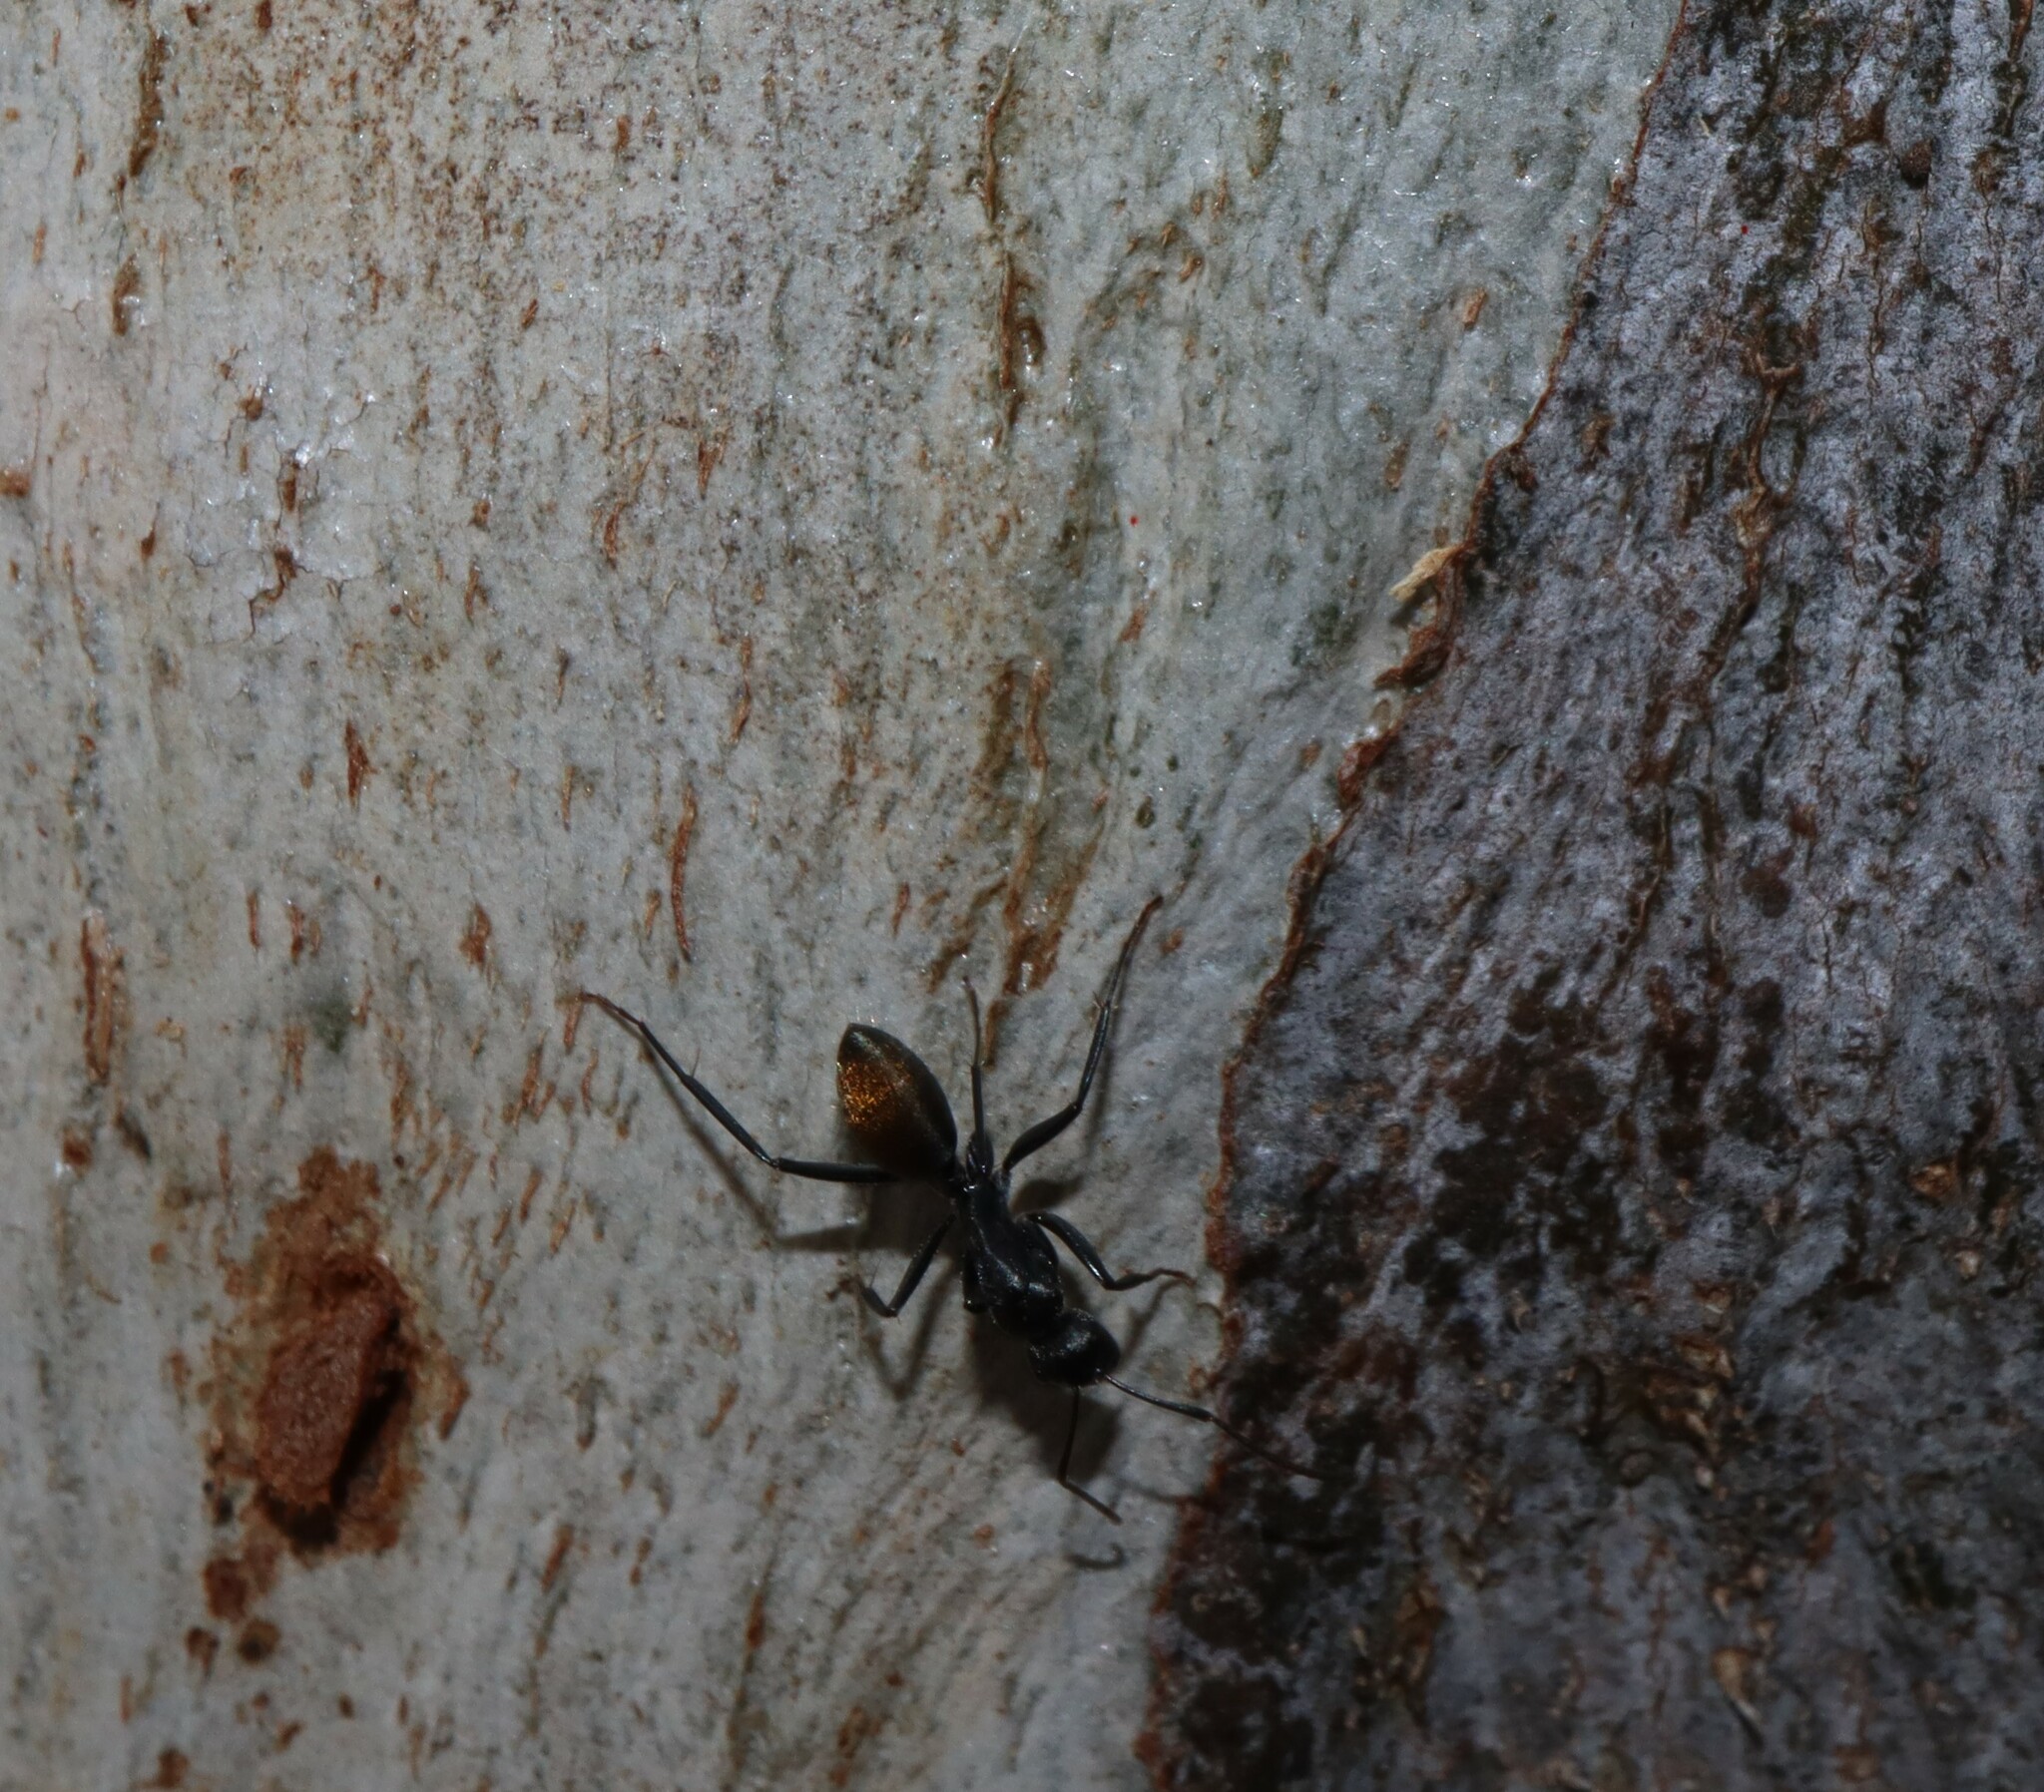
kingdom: Animalia
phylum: Arthropoda
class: Insecta
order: Hymenoptera
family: Formicidae
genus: Camponotus
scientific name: Camponotus aeneopilosus
